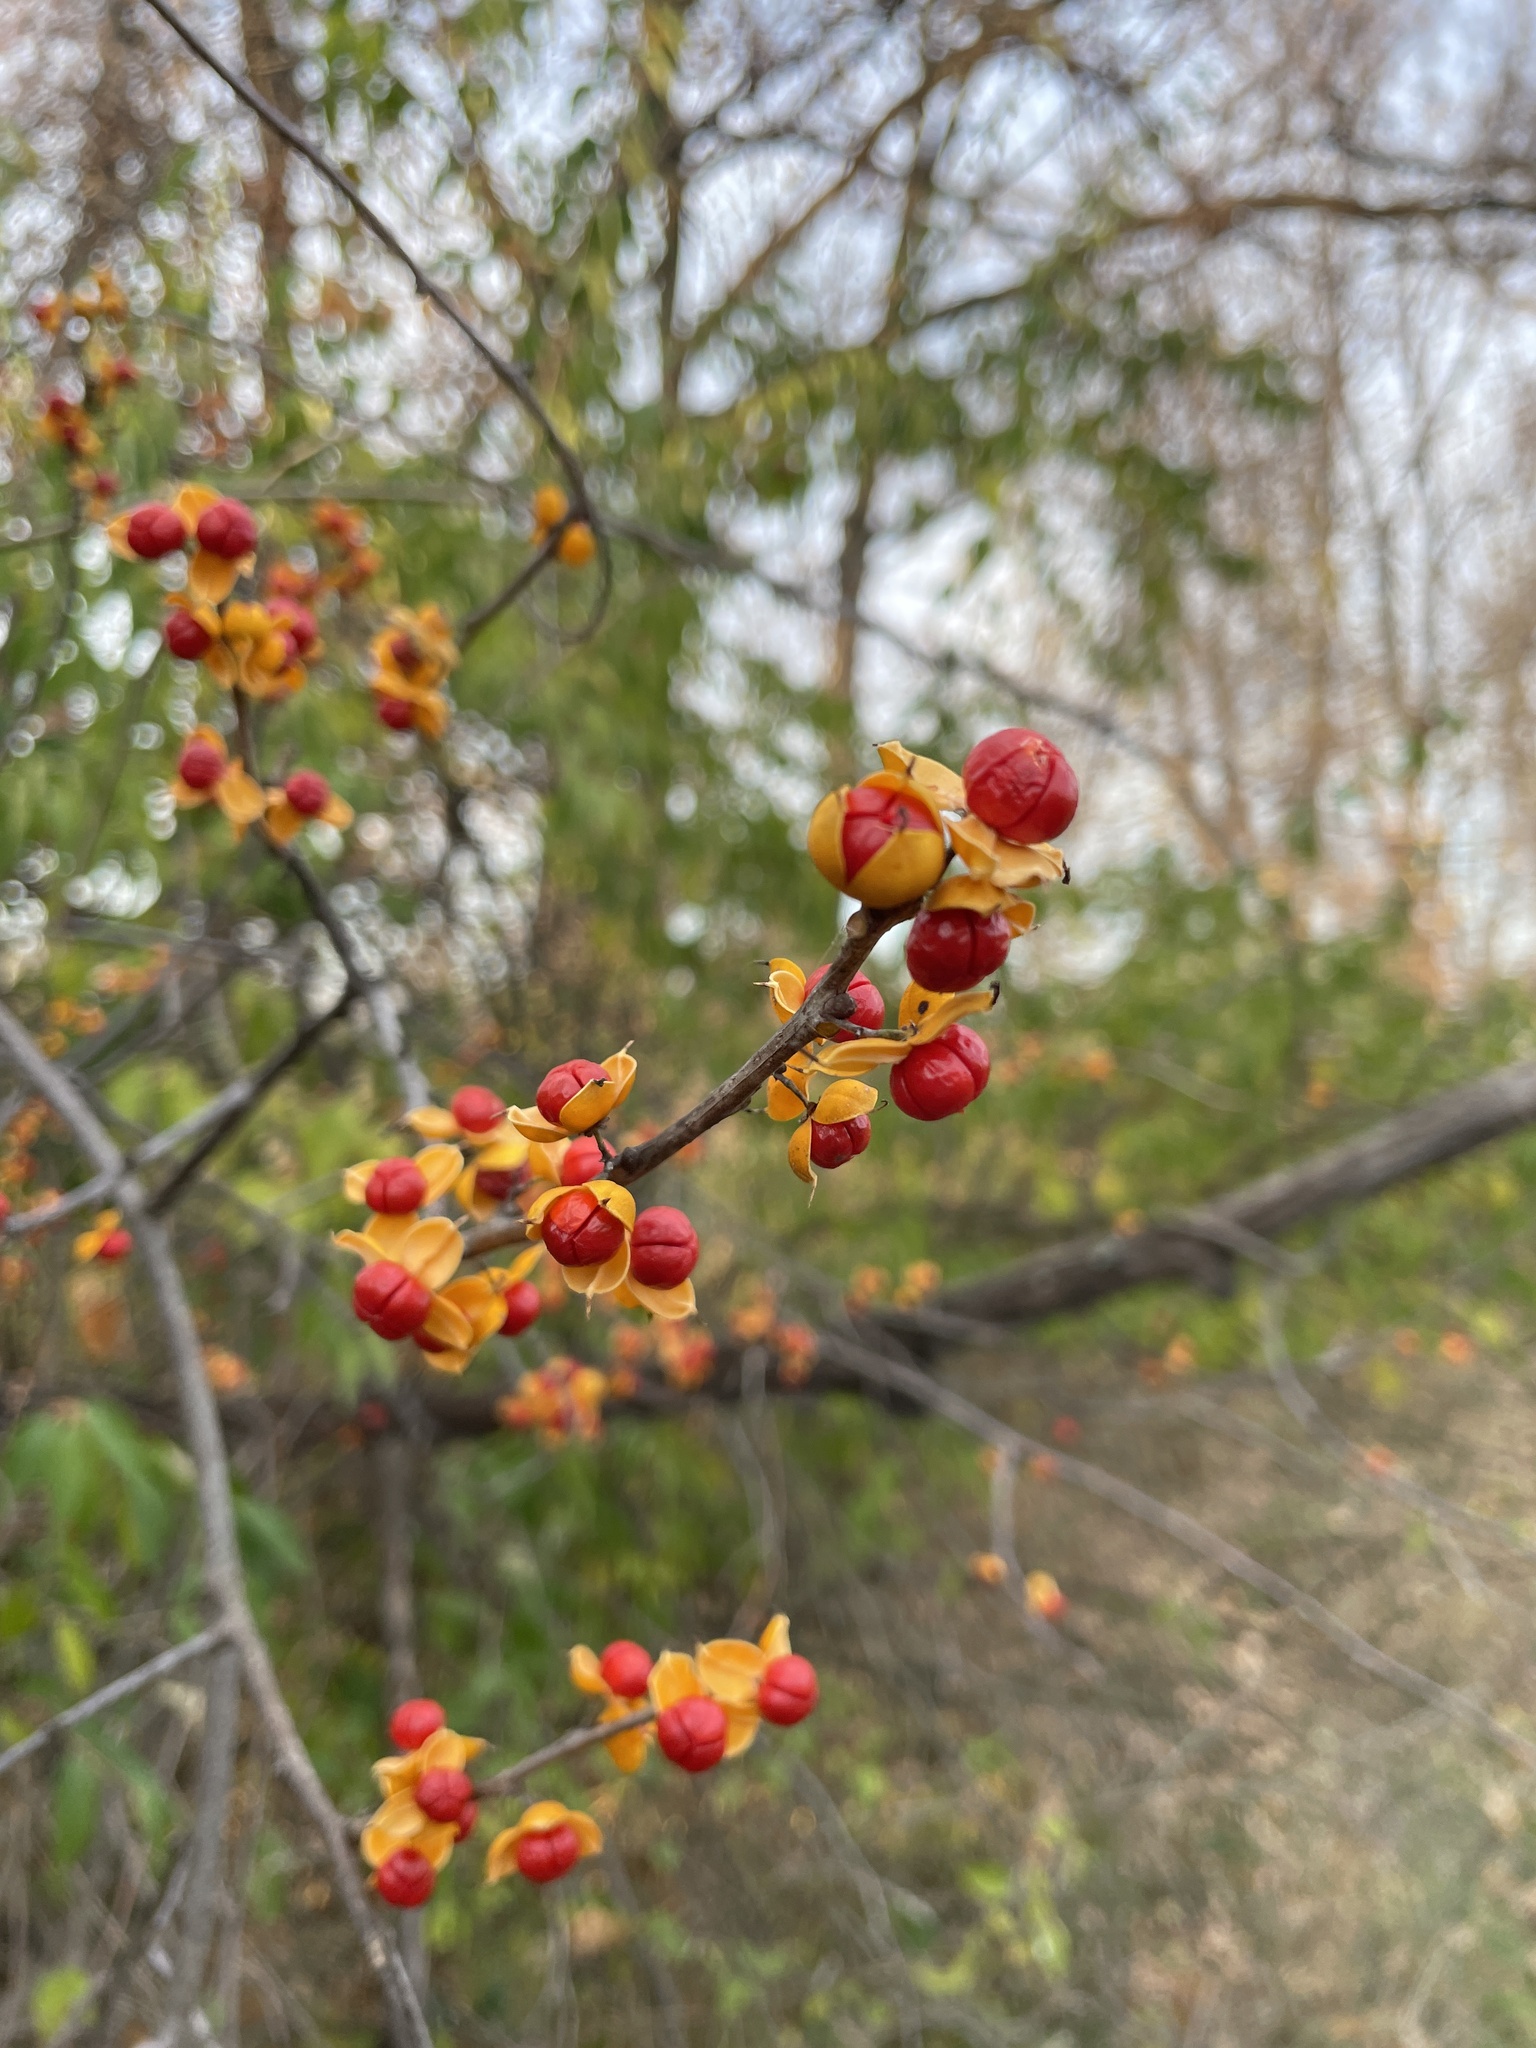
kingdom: Plantae
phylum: Tracheophyta
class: Magnoliopsida
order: Celastrales
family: Celastraceae
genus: Celastrus
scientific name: Celastrus orbiculatus
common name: Oriental bittersweet
